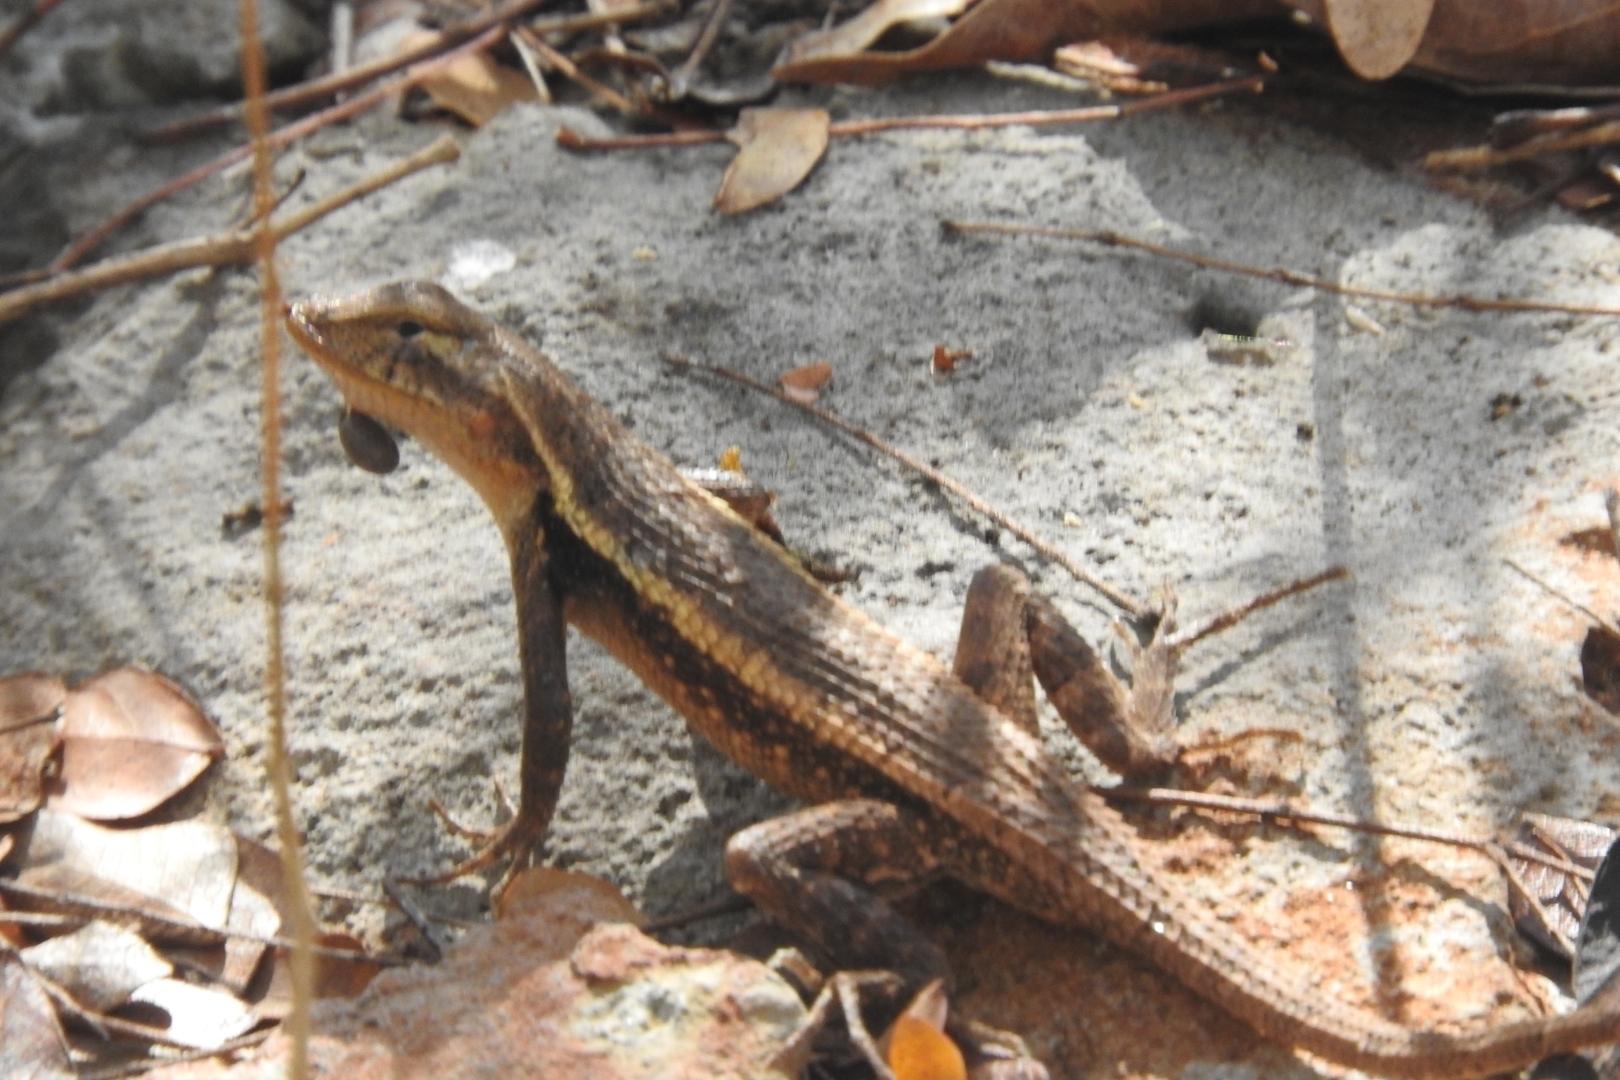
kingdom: Animalia
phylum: Chordata
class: Squamata
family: Phrynosomatidae
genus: Sceloporus
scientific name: Sceloporus chrysostictus
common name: Yellow-spotted spiny lizard
